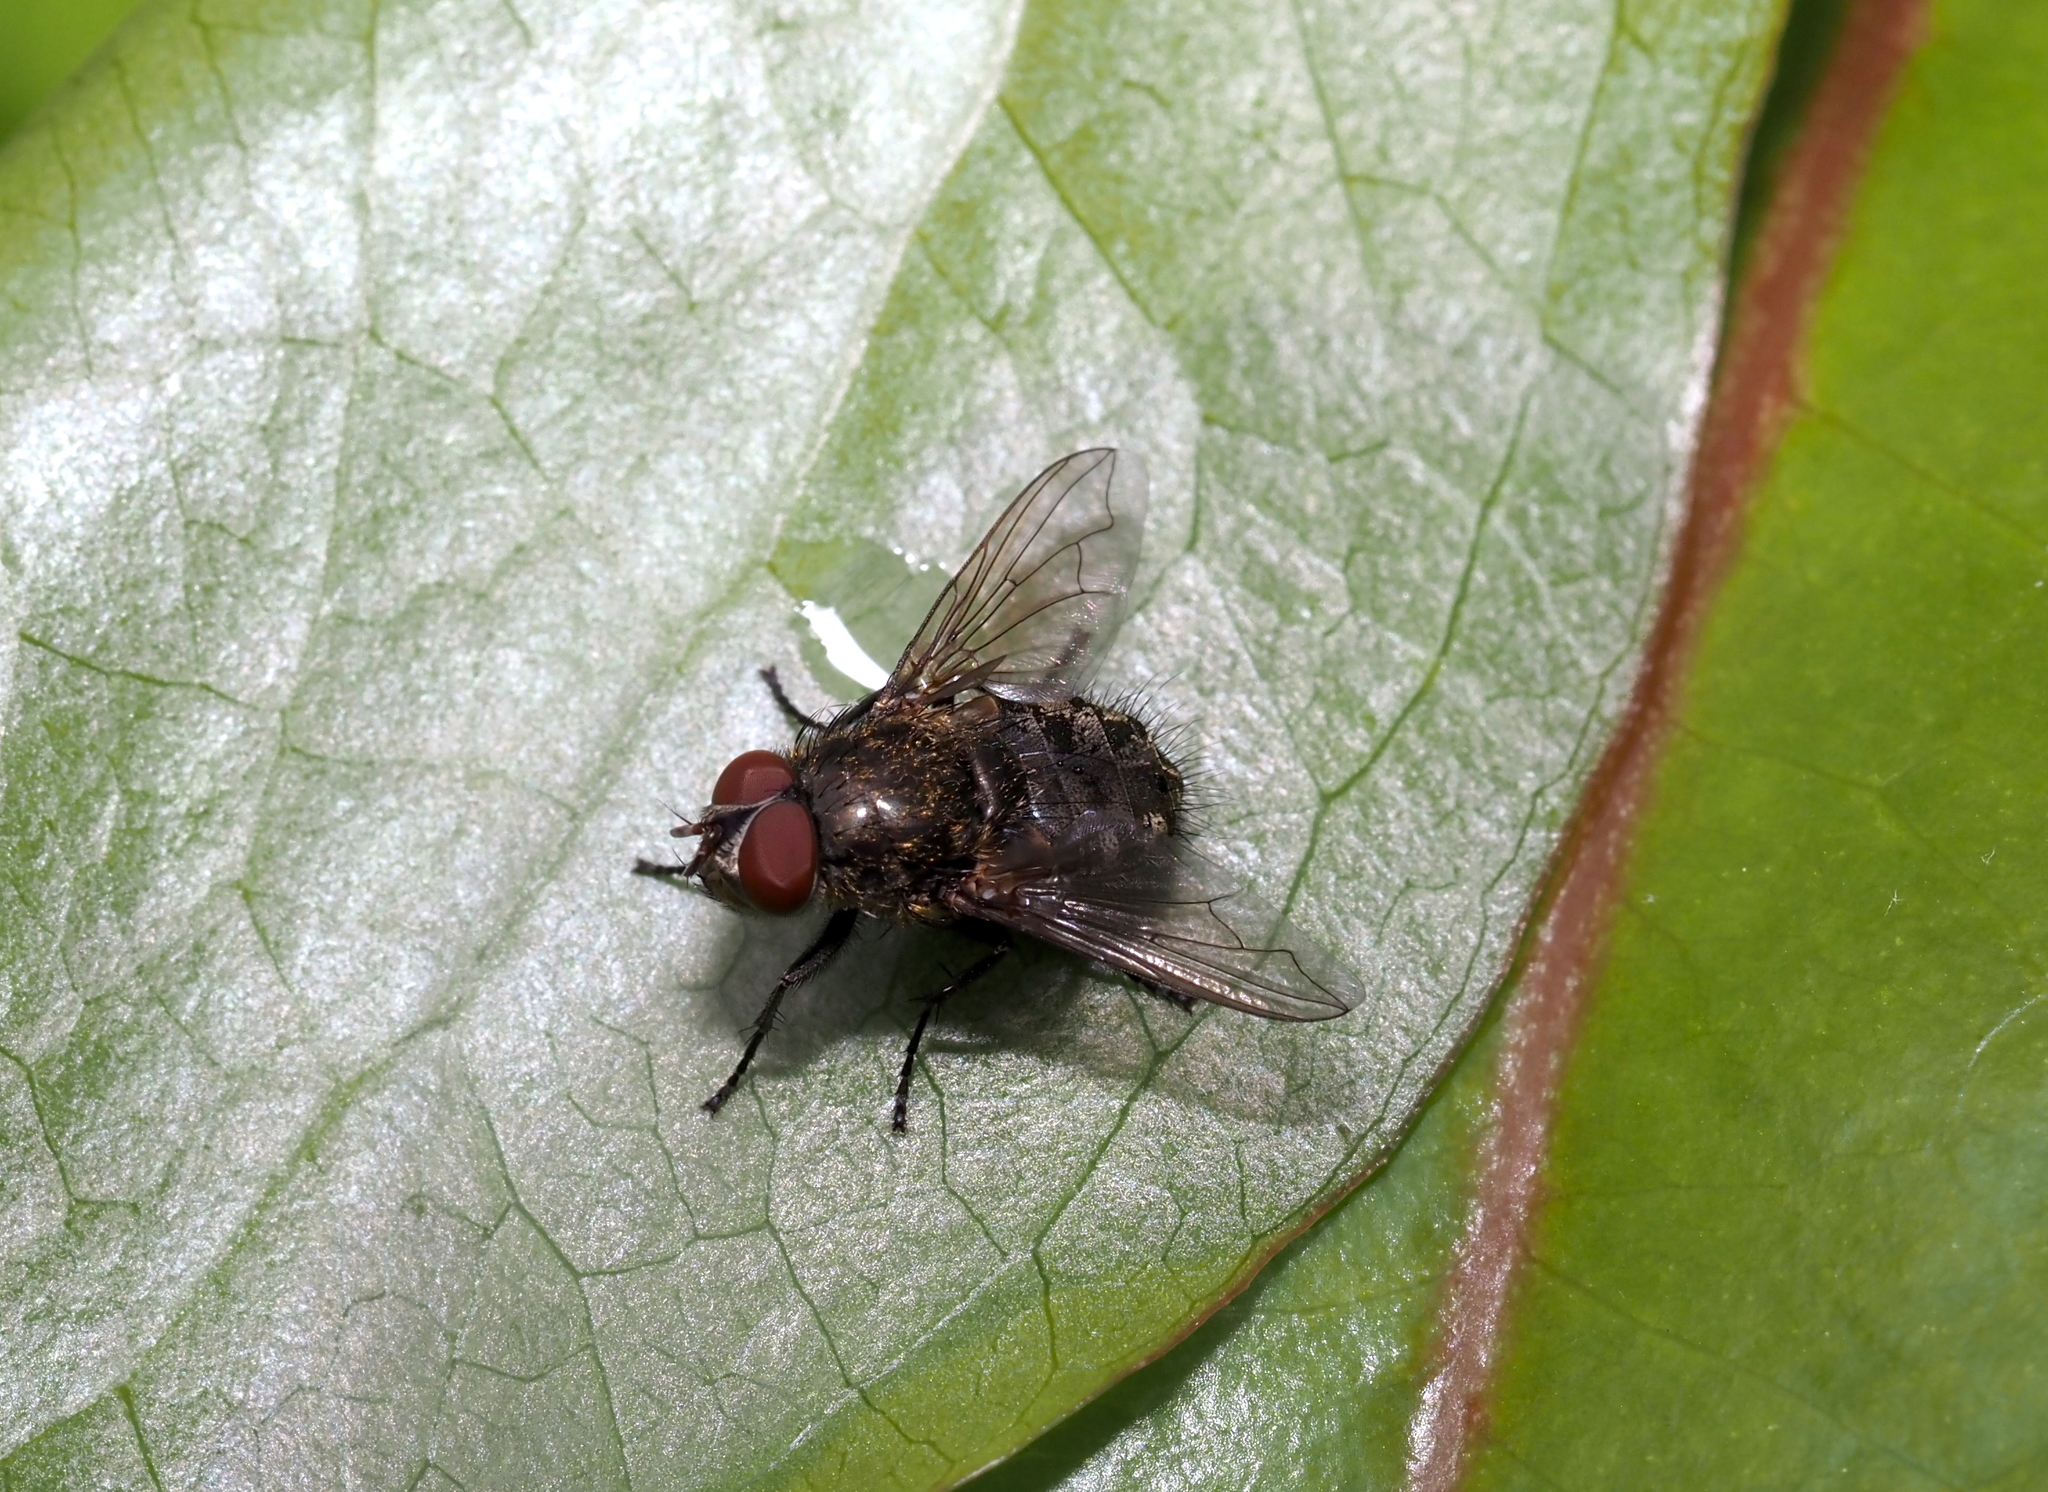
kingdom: Animalia
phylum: Arthropoda
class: Insecta
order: Diptera
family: Polleniidae
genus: Pollenia
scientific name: Pollenia
